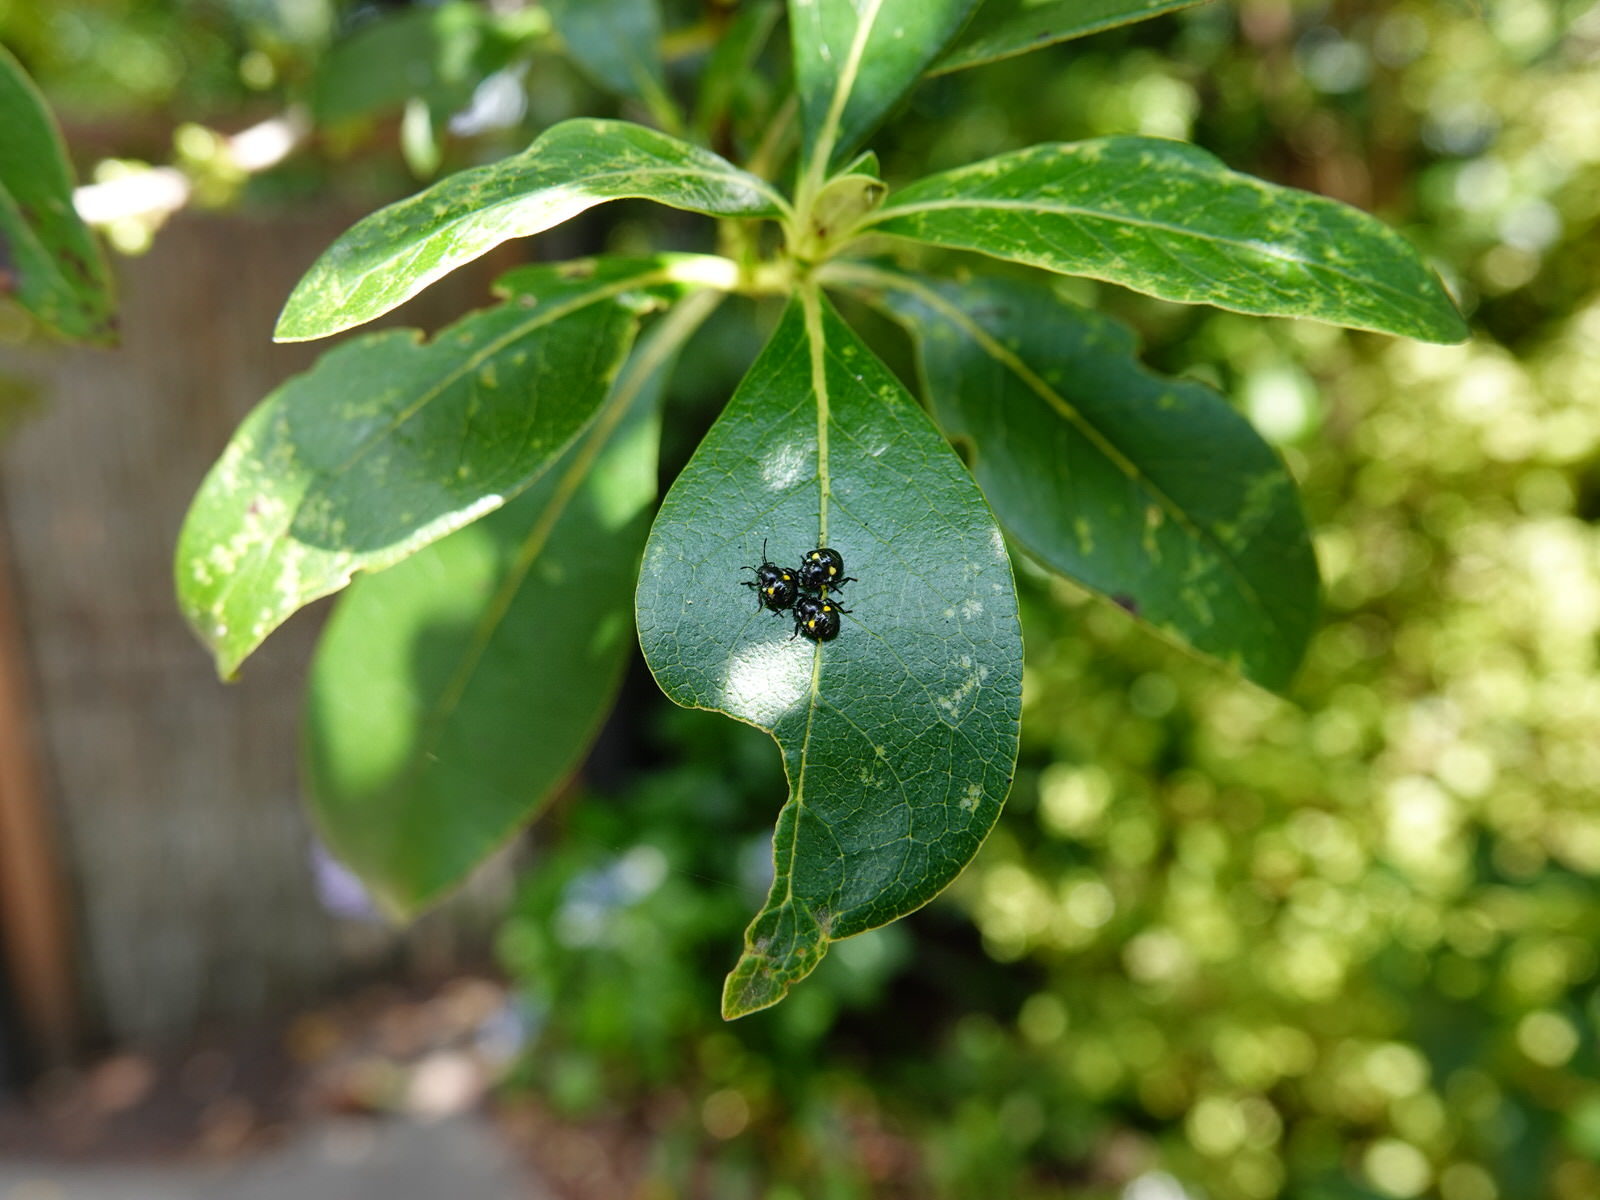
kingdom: Animalia
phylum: Arthropoda
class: Insecta
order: Hemiptera
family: Pentatomidae
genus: Glaucias
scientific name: Glaucias amyota
